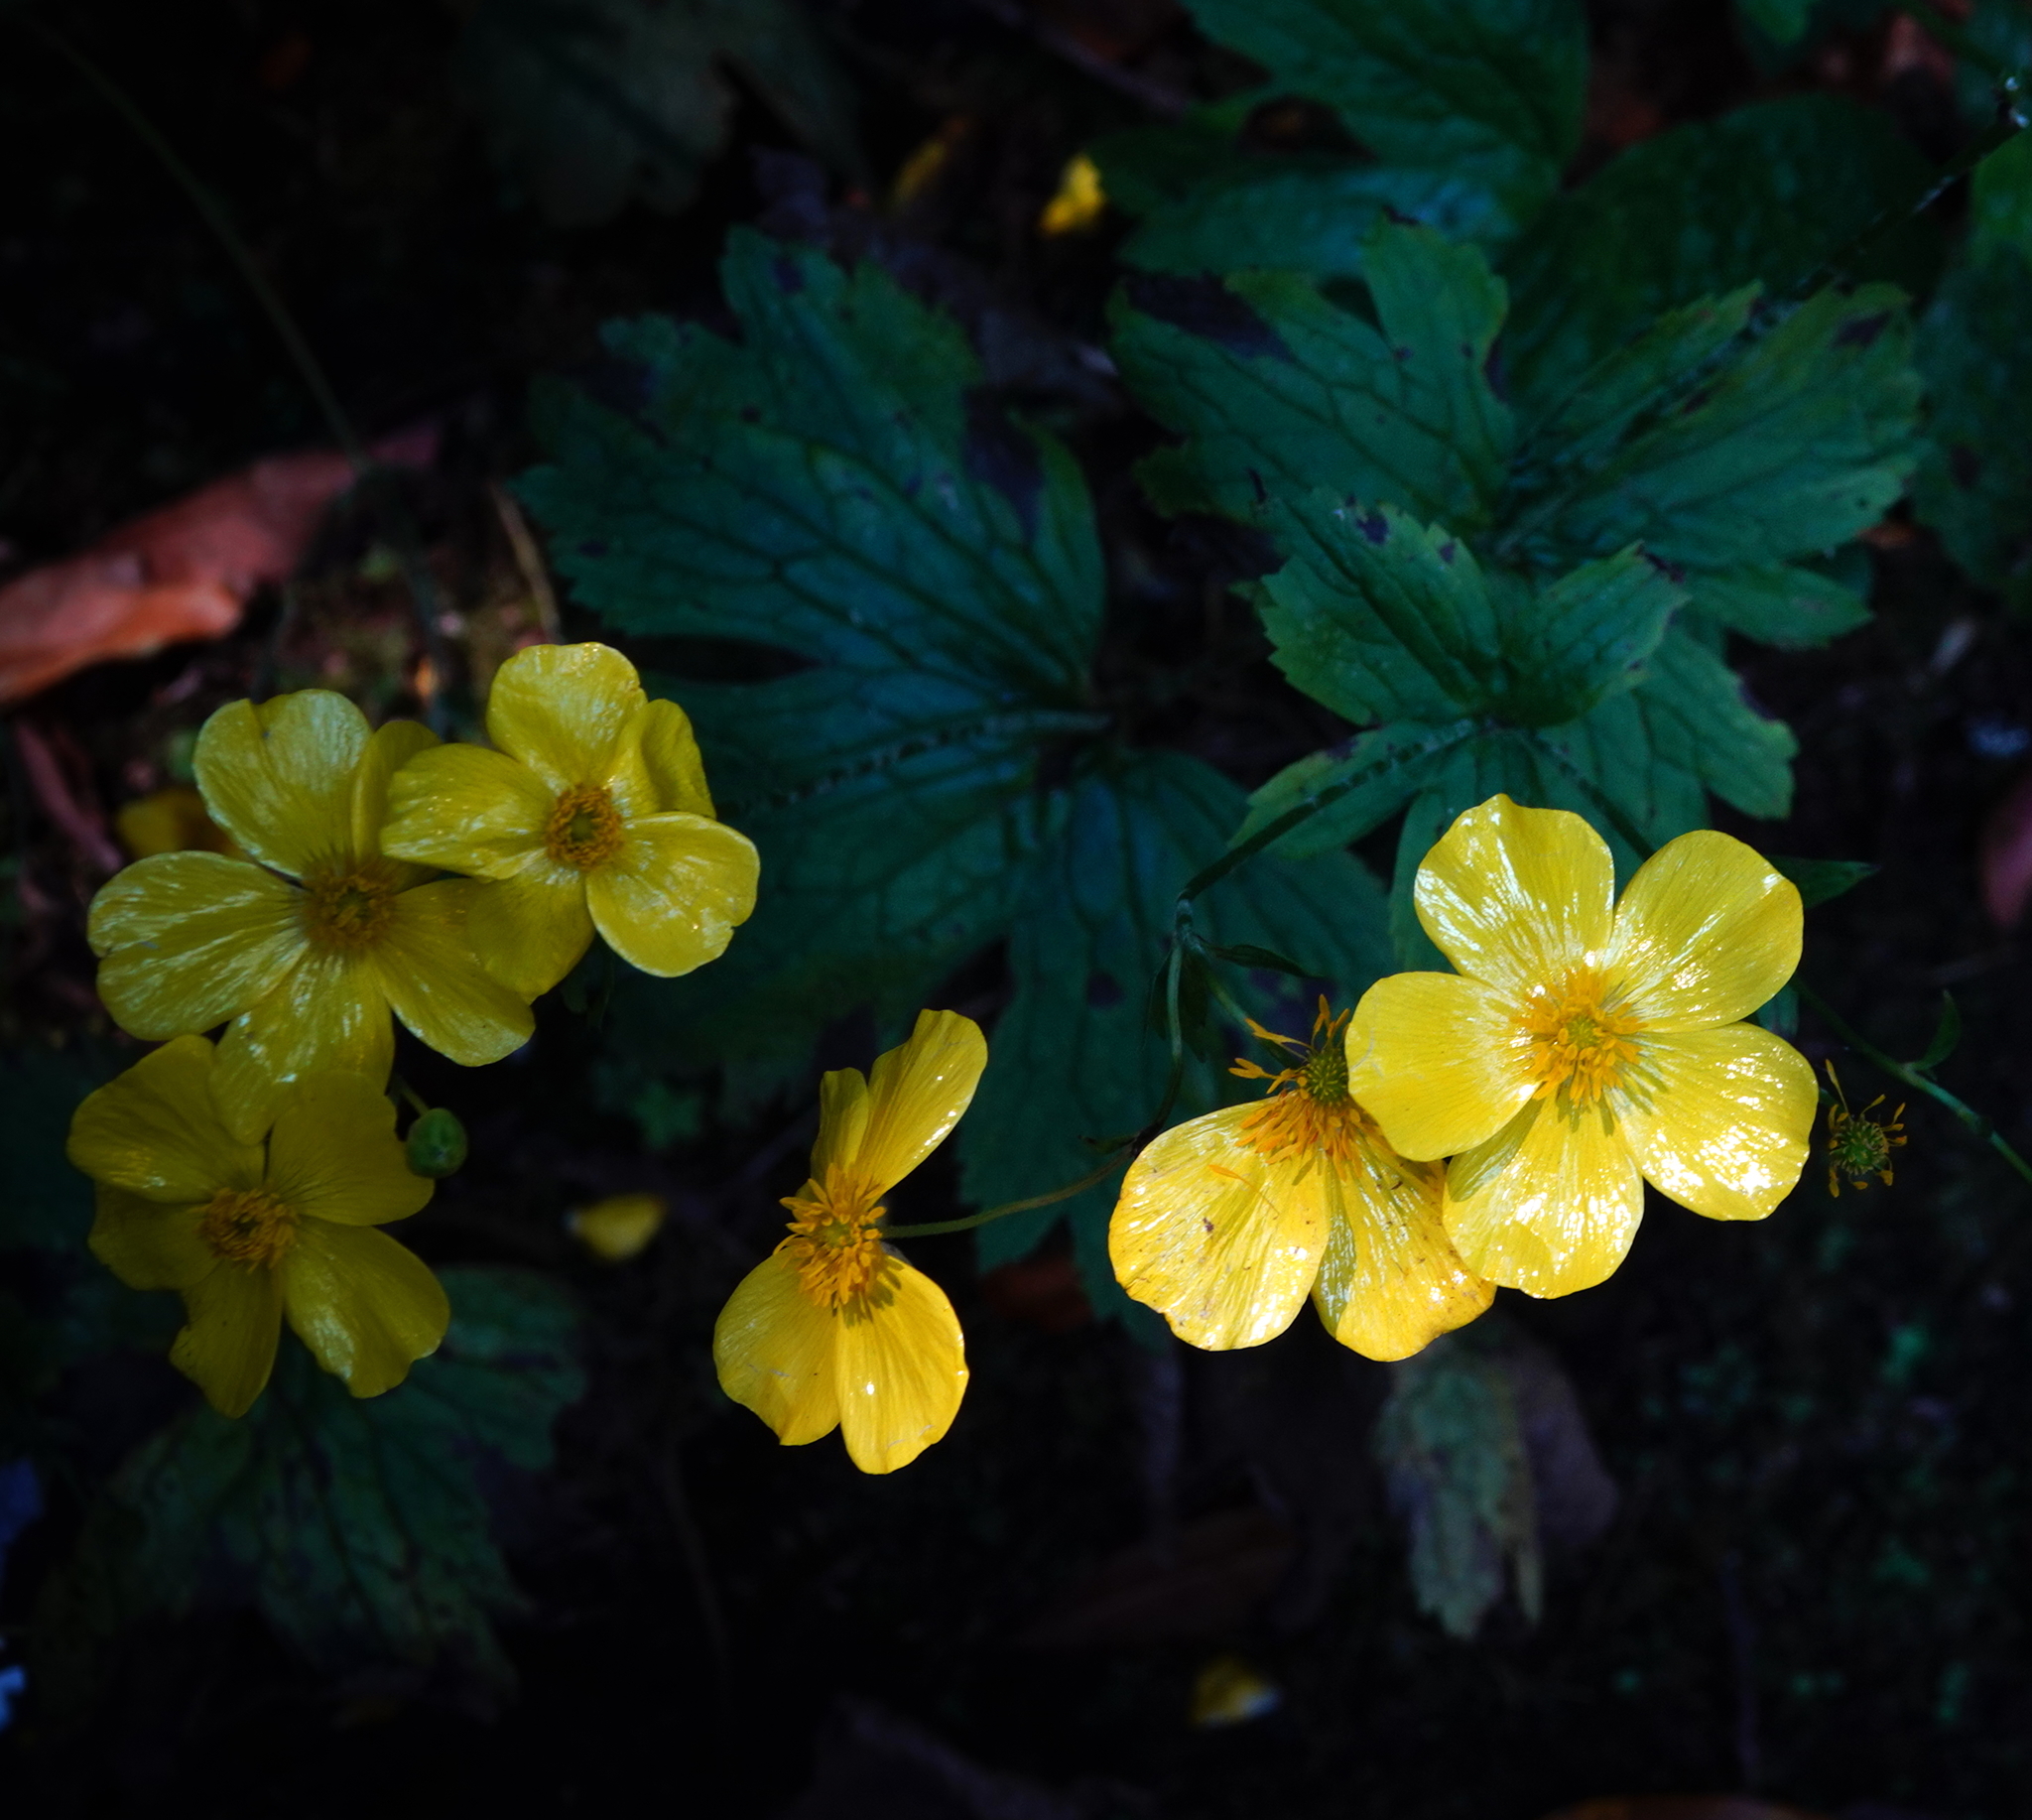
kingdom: Plantae
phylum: Tracheophyta
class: Magnoliopsida
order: Ranunculales
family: Ranunculaceae
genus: Ranunculus
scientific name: Ranunculus cortusifolius
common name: Azores buttercup
